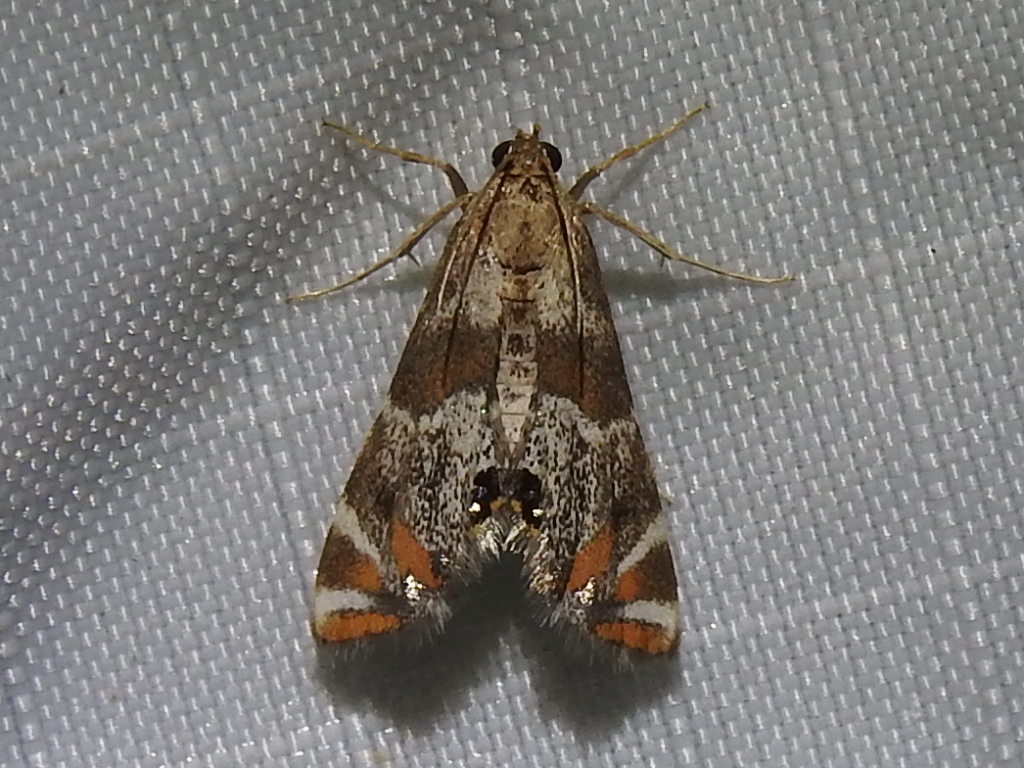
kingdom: Animalia
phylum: Arthropoda
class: Insecta
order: Lepidoptera
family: Crambidae
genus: Petrophila
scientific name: Petrophila jaliscalis
